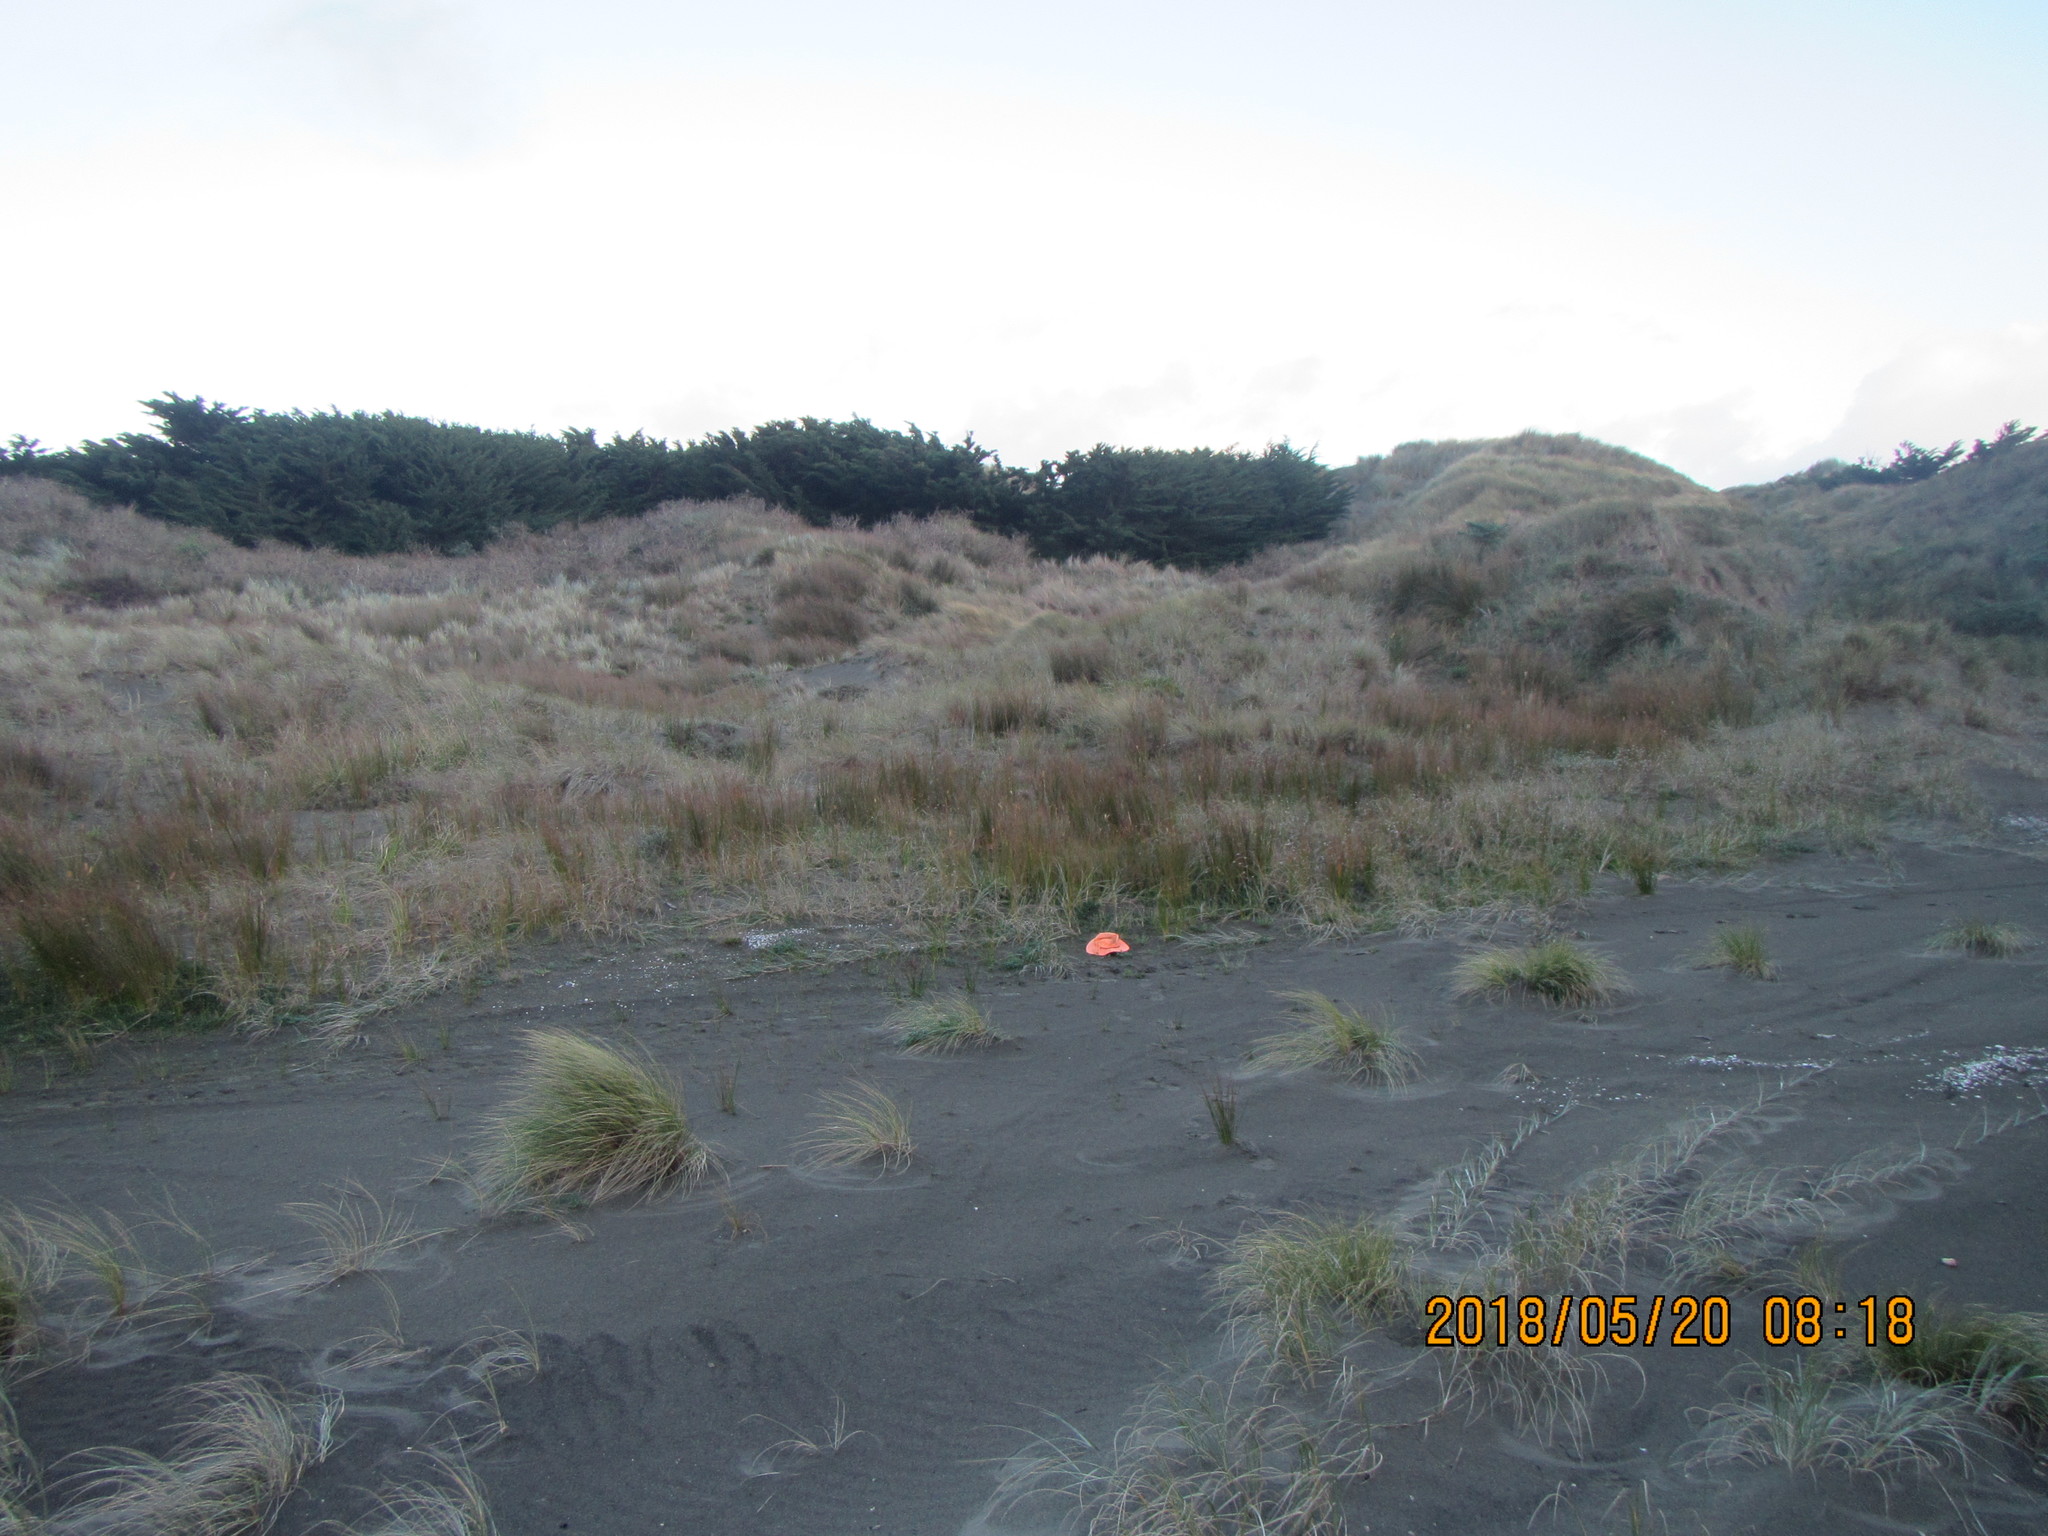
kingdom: Plantae
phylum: Tracheophyta
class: Magnoliopsida
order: Asterales
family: Goodeniaceae
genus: Goodenia
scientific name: Goodenia heenanii
